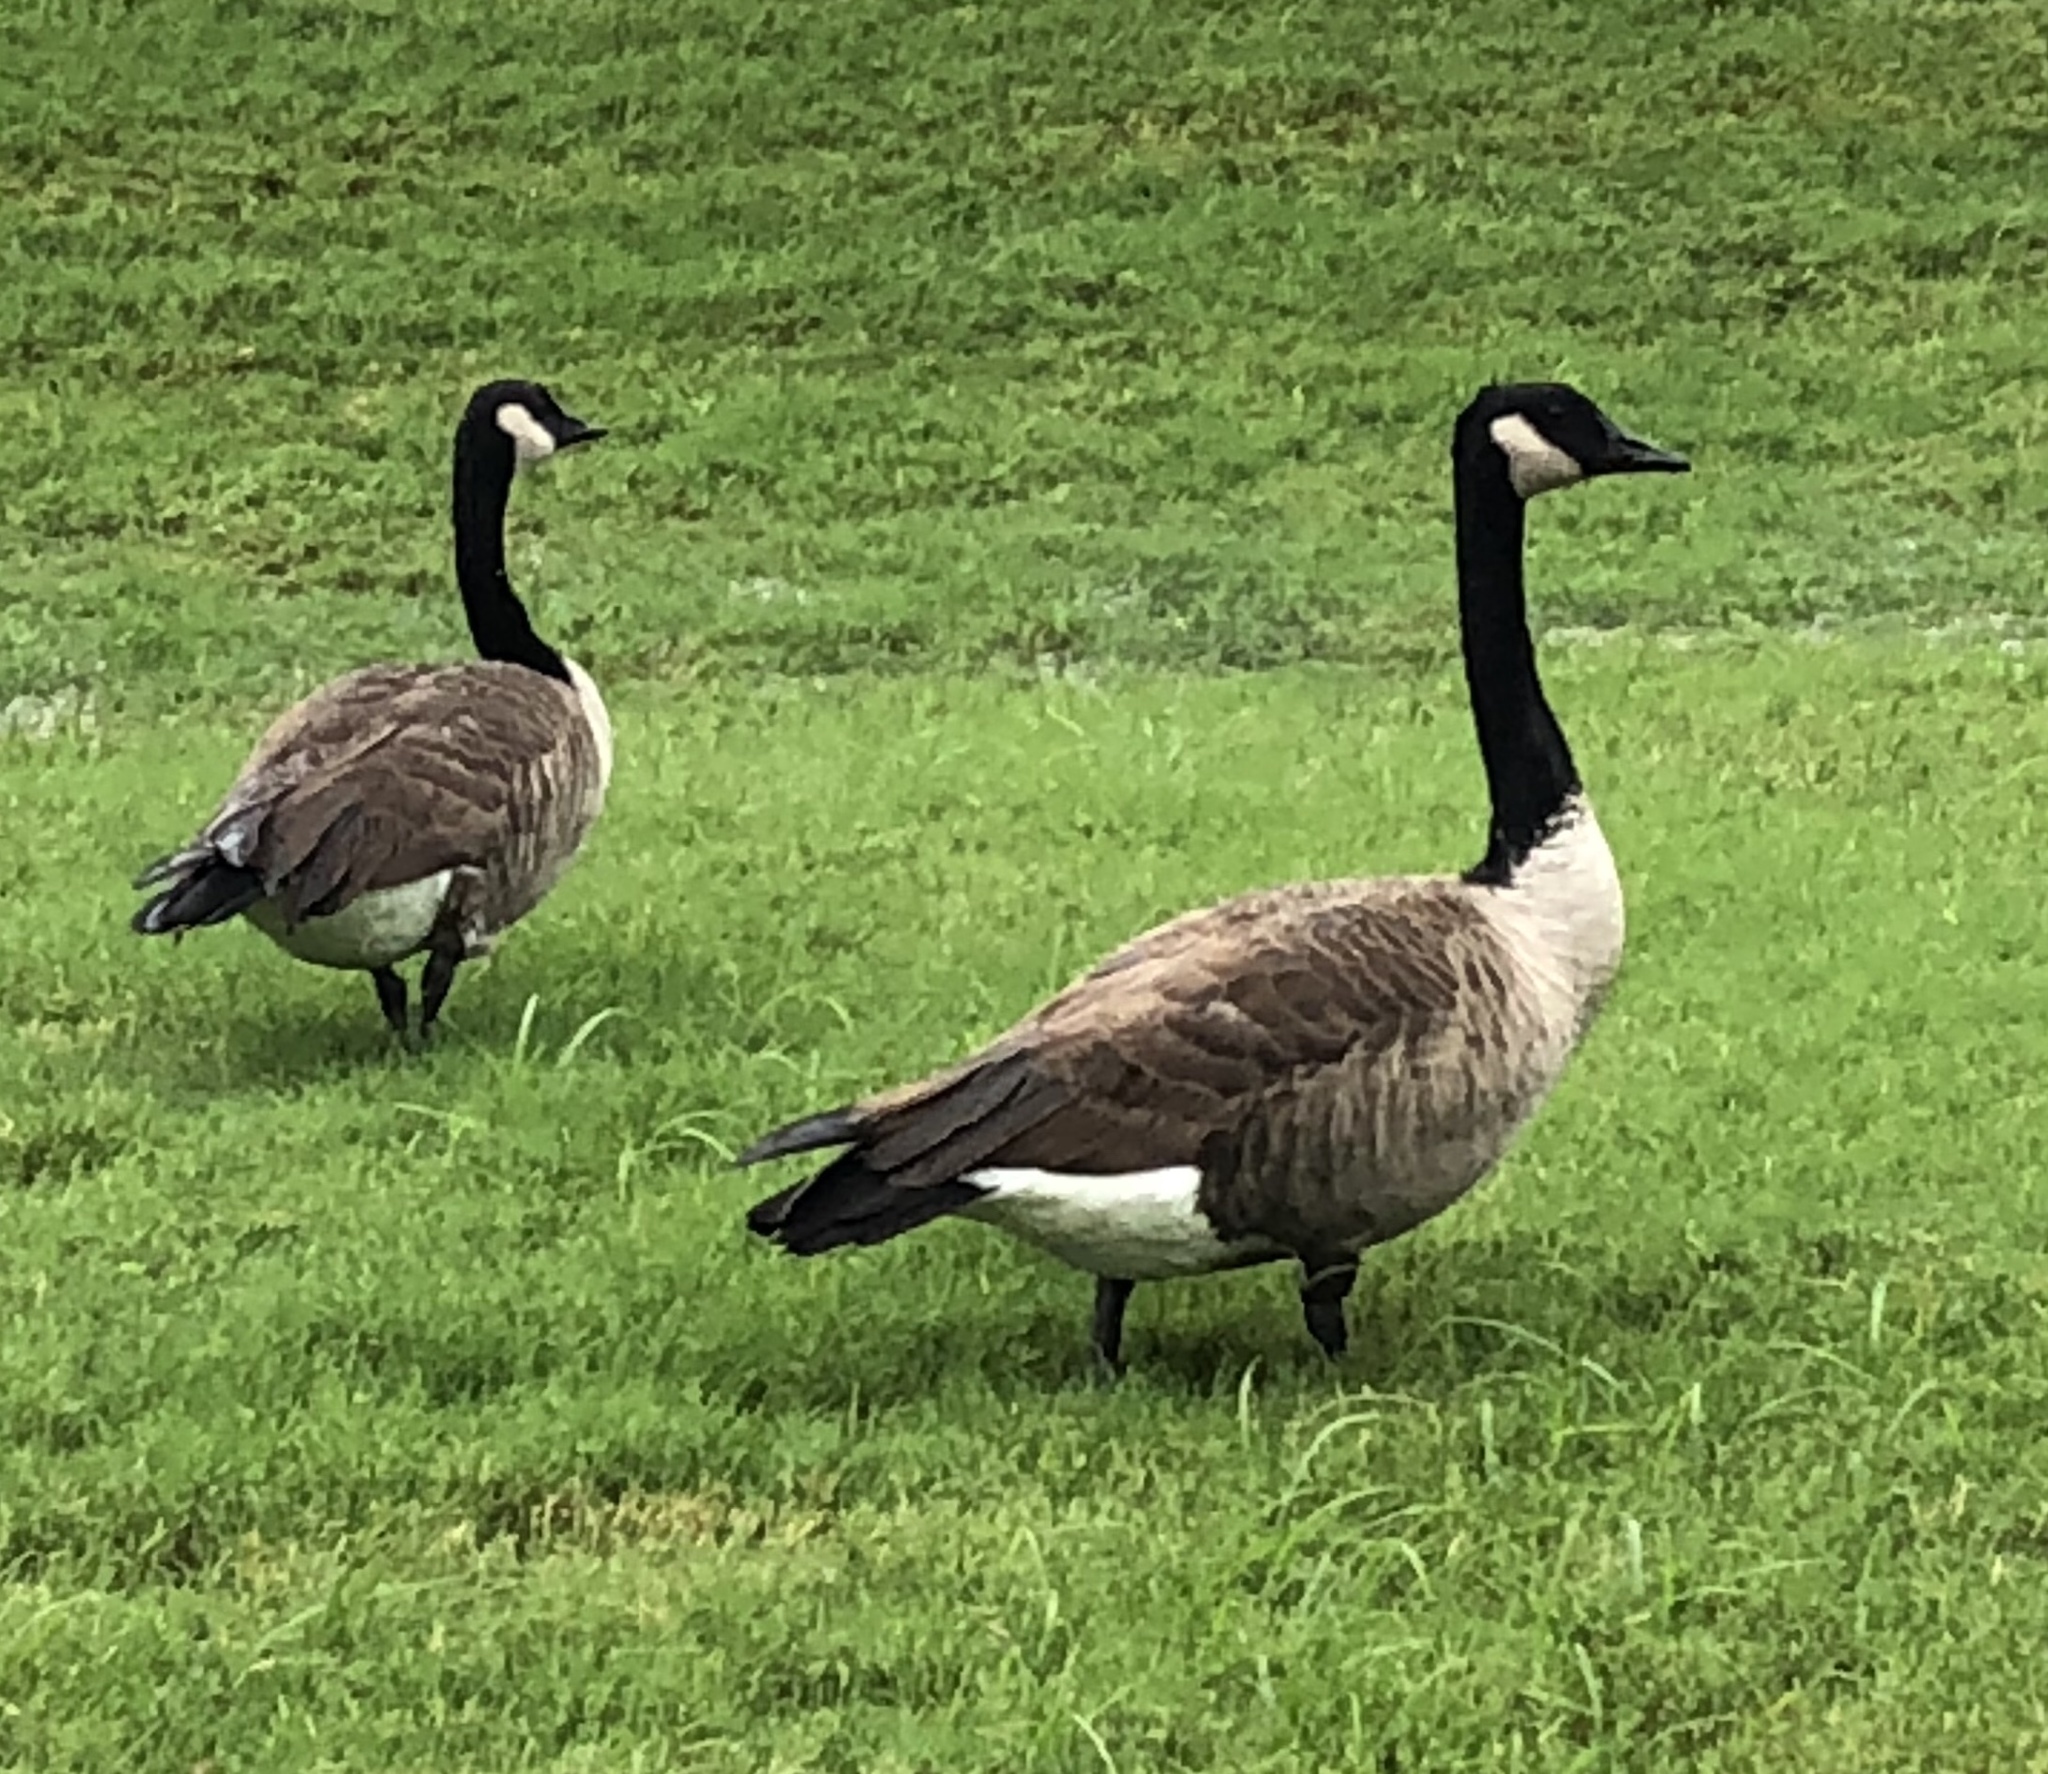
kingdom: Animalia
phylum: Chordata
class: Aves
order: Anseriformes
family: Anatidae
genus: Branta
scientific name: Branta canadensis
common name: Canada goose
